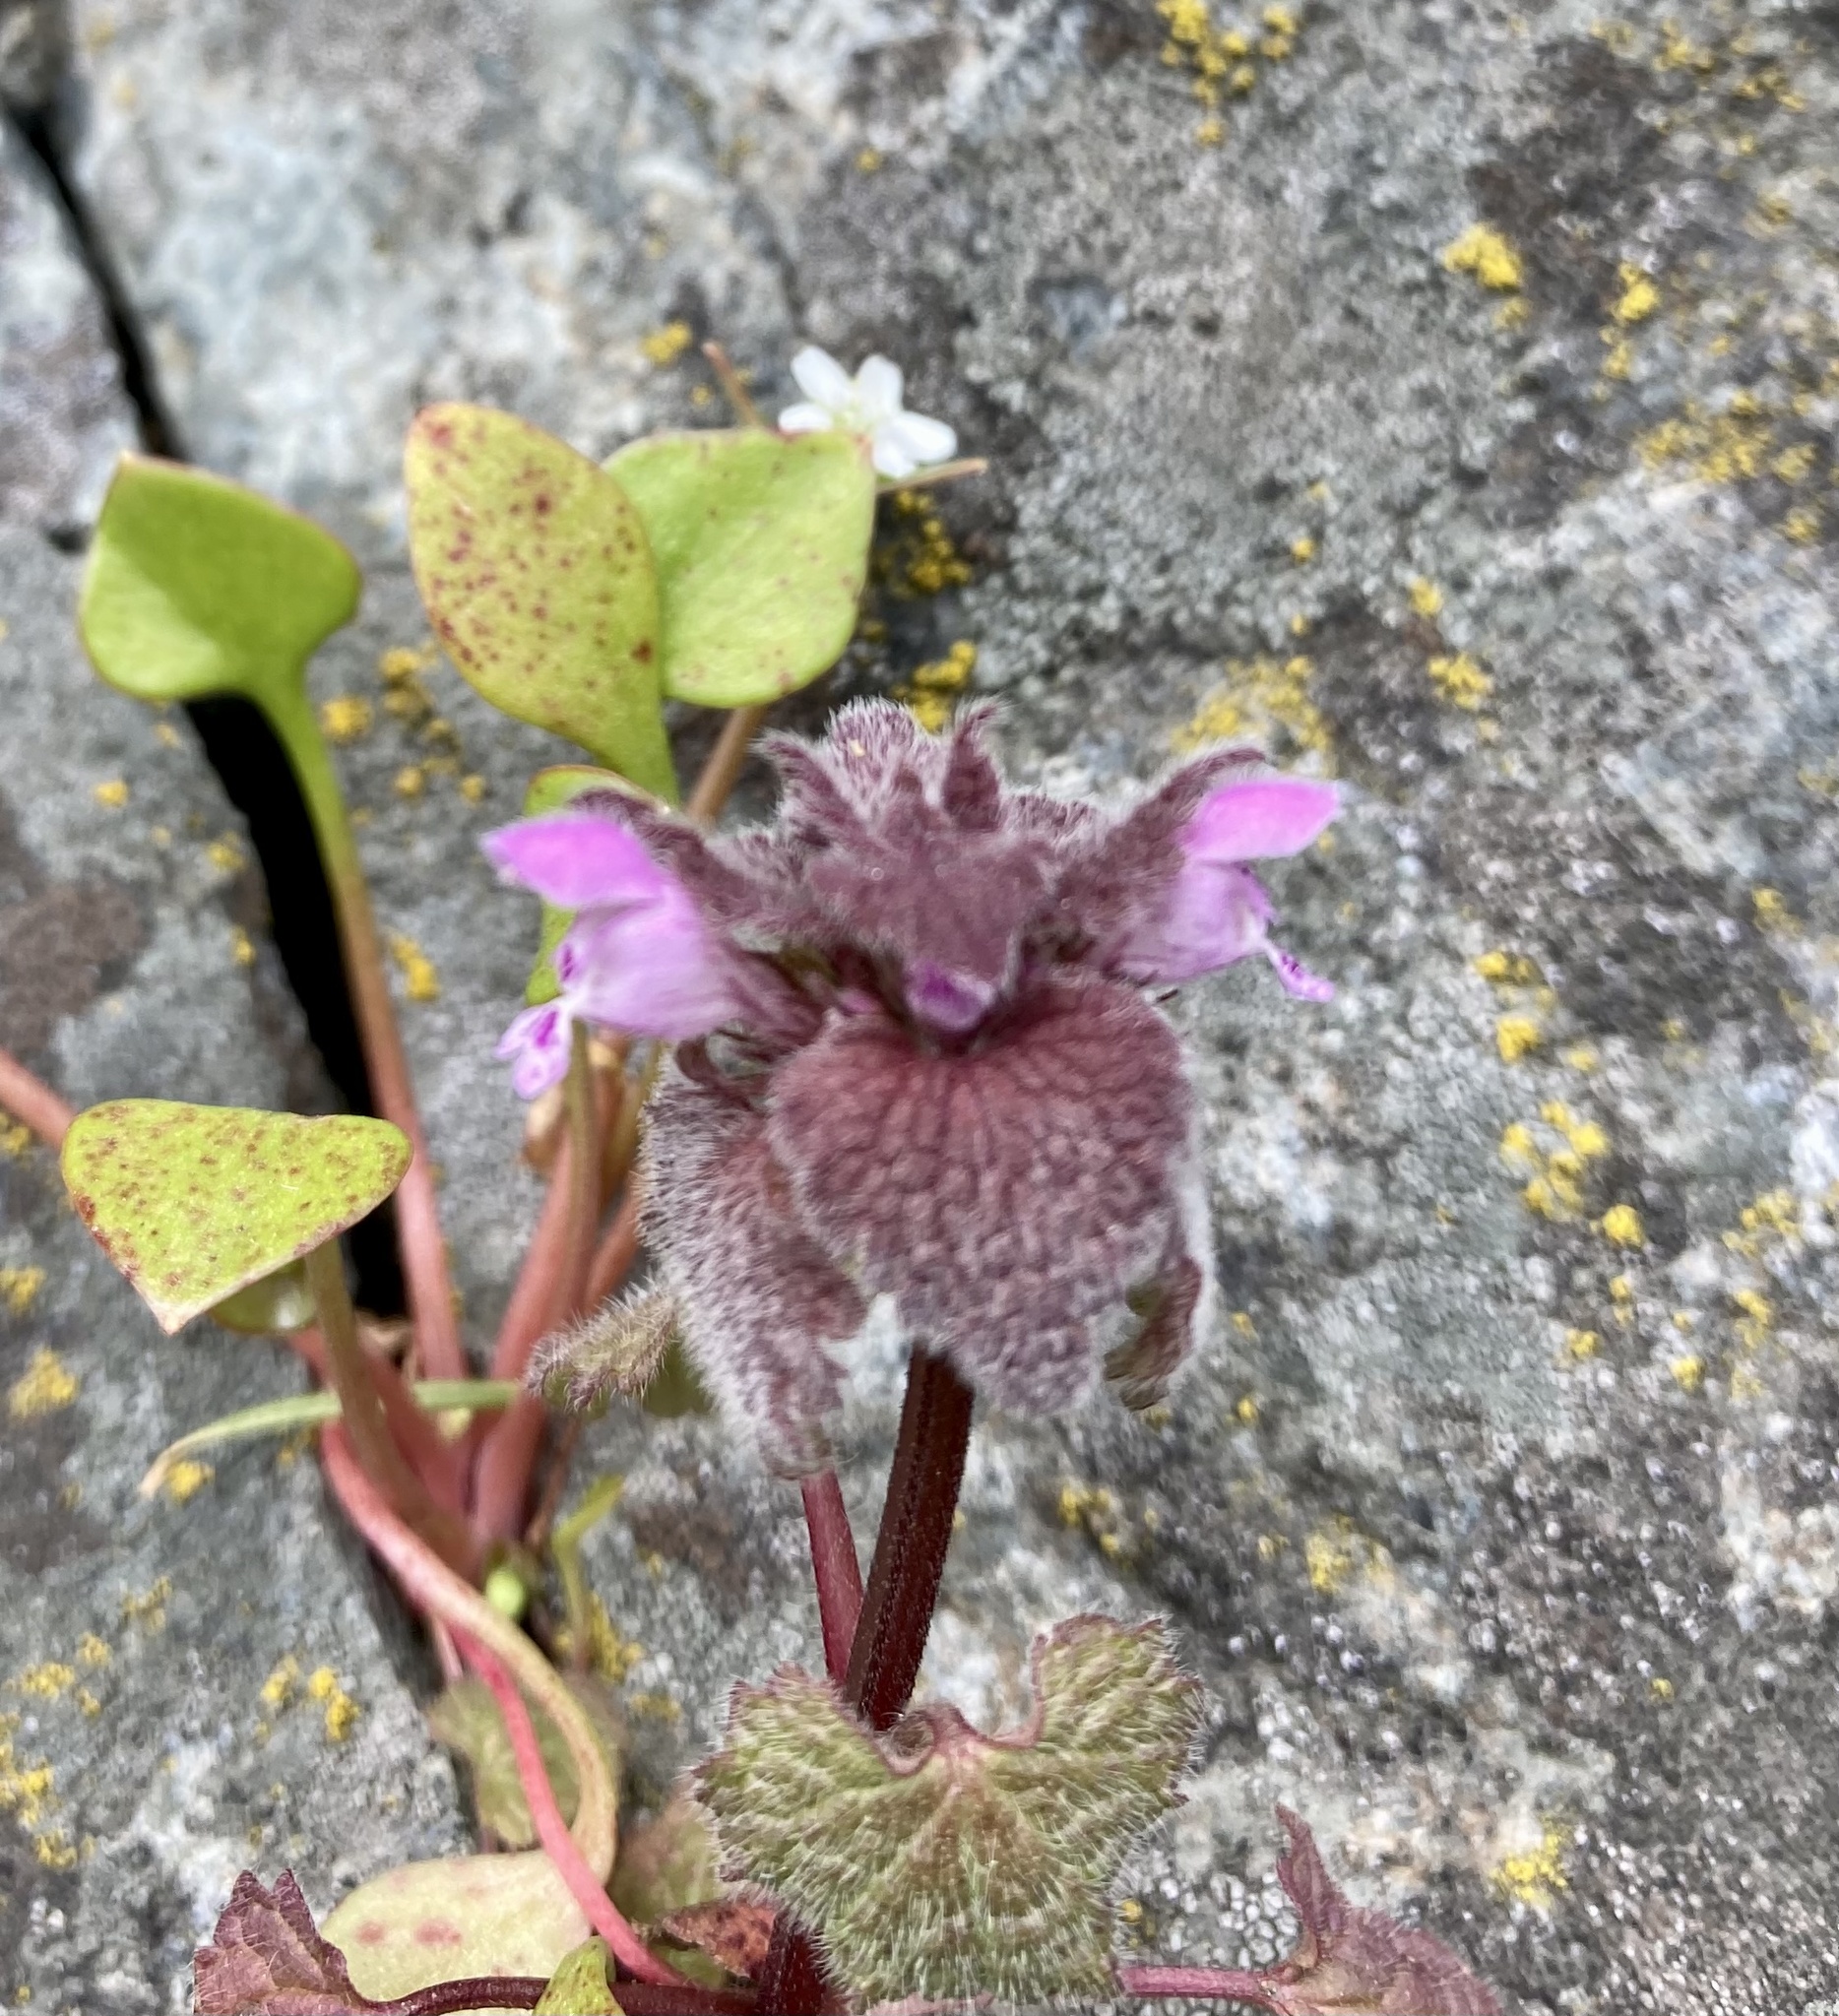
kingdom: Plantae
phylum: Tracheophyta
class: Magnoliopsida
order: Lamiales
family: Lamiaceae
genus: Lamium
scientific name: Lamium purpureum
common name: Red dead-nettle
